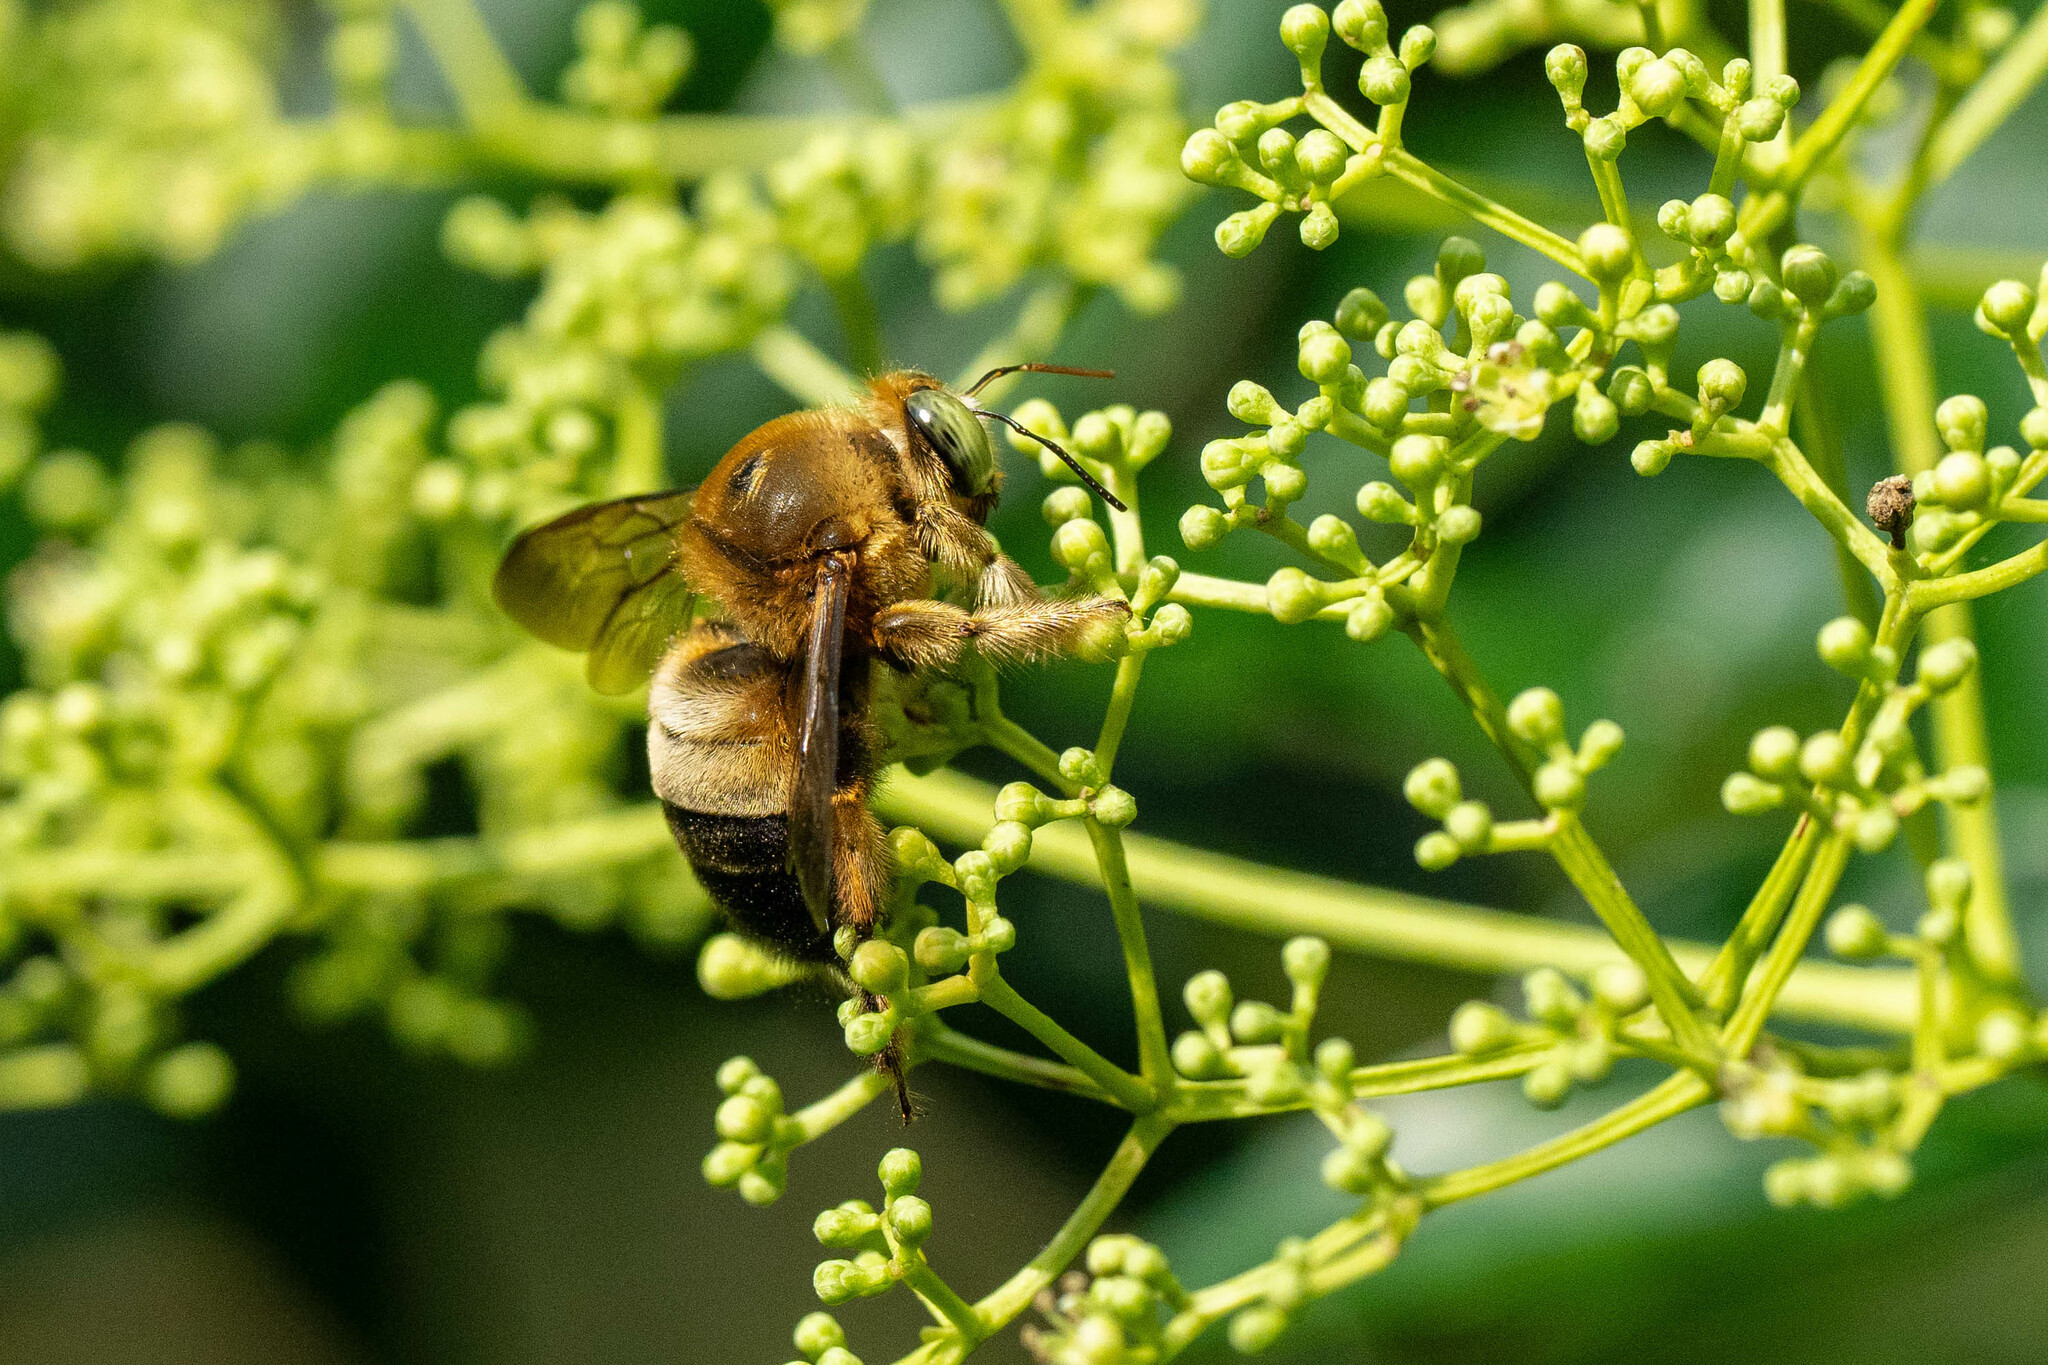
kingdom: Animalia
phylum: Arthropoda
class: Insecta
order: Hymenoptera
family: Apidae
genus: Xylocopa
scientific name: Xylocopa dejeanii
